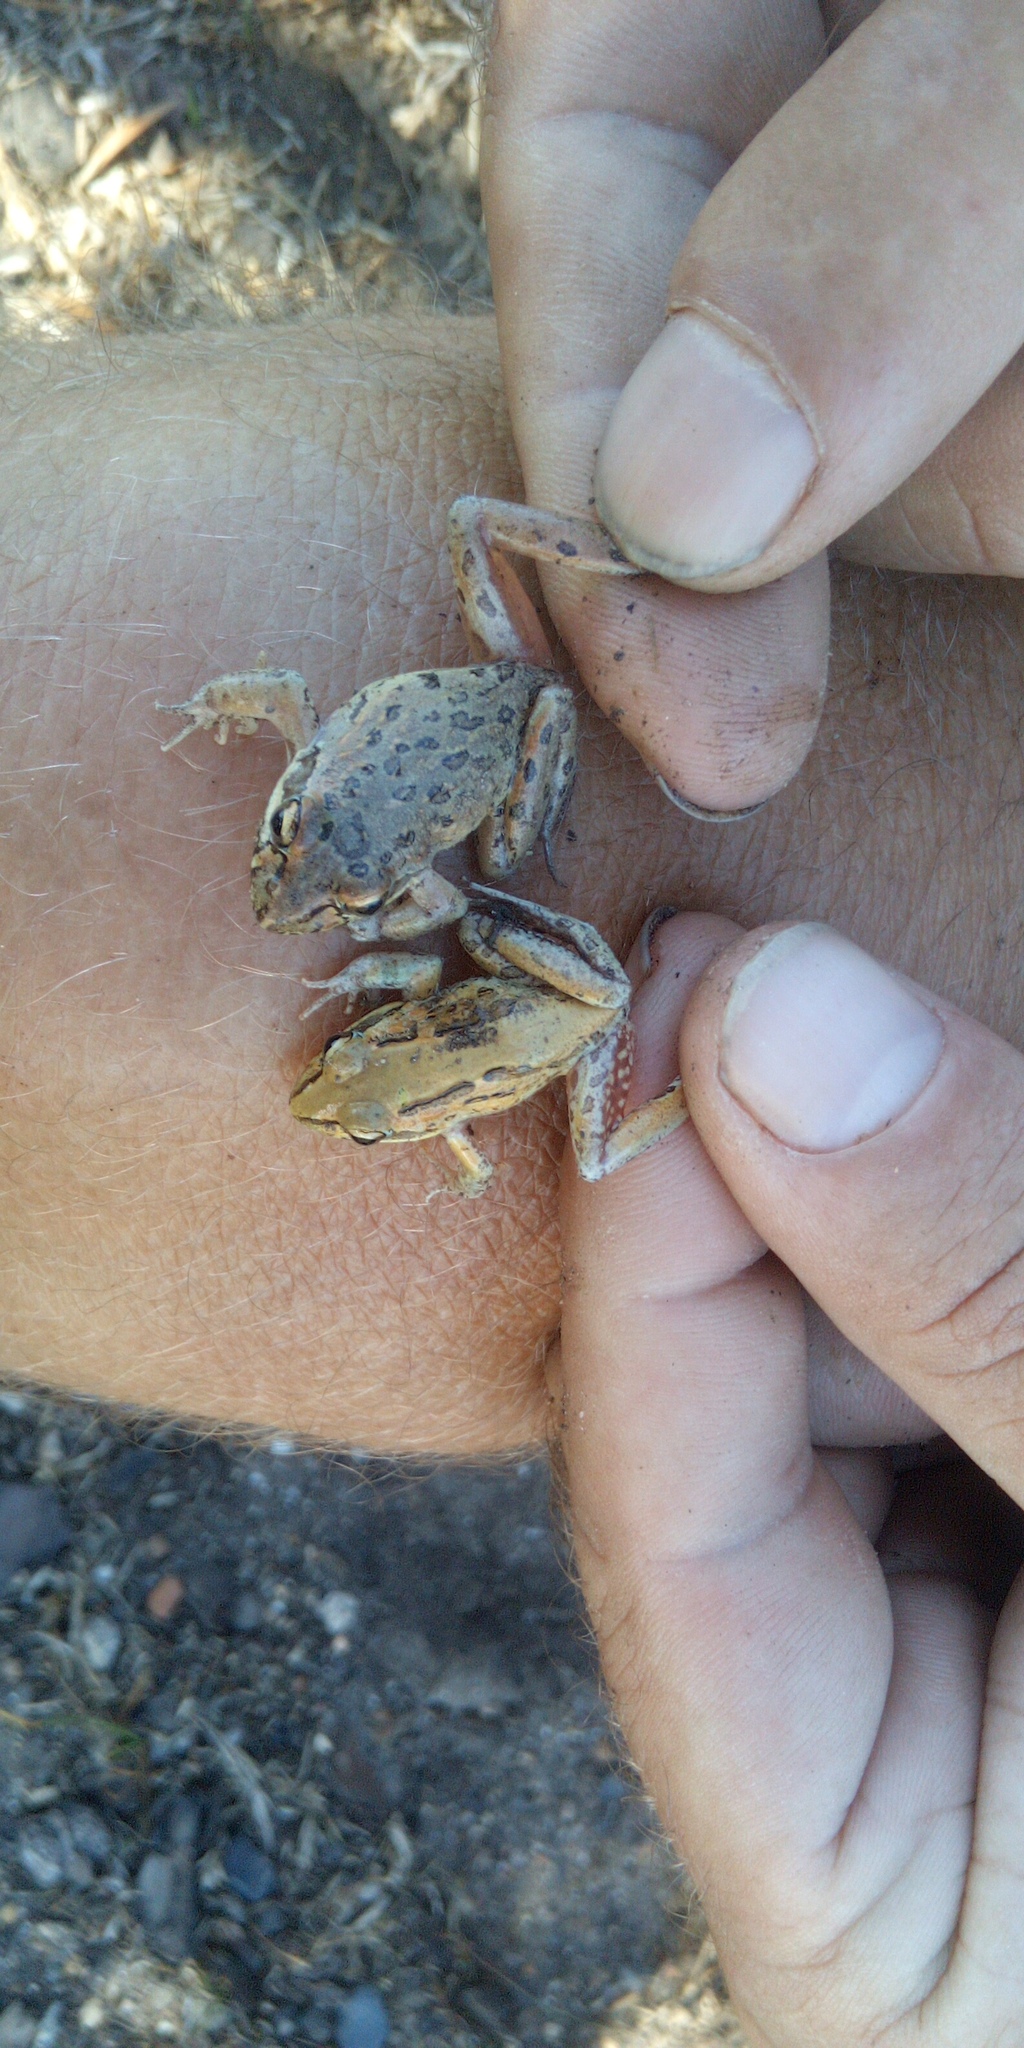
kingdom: Animalia
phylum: Chordata
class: Amphibia
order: Anura
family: Pyxicephalidae
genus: Strongylopus
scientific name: Strongylopus grayii
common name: Gray's stream frog
